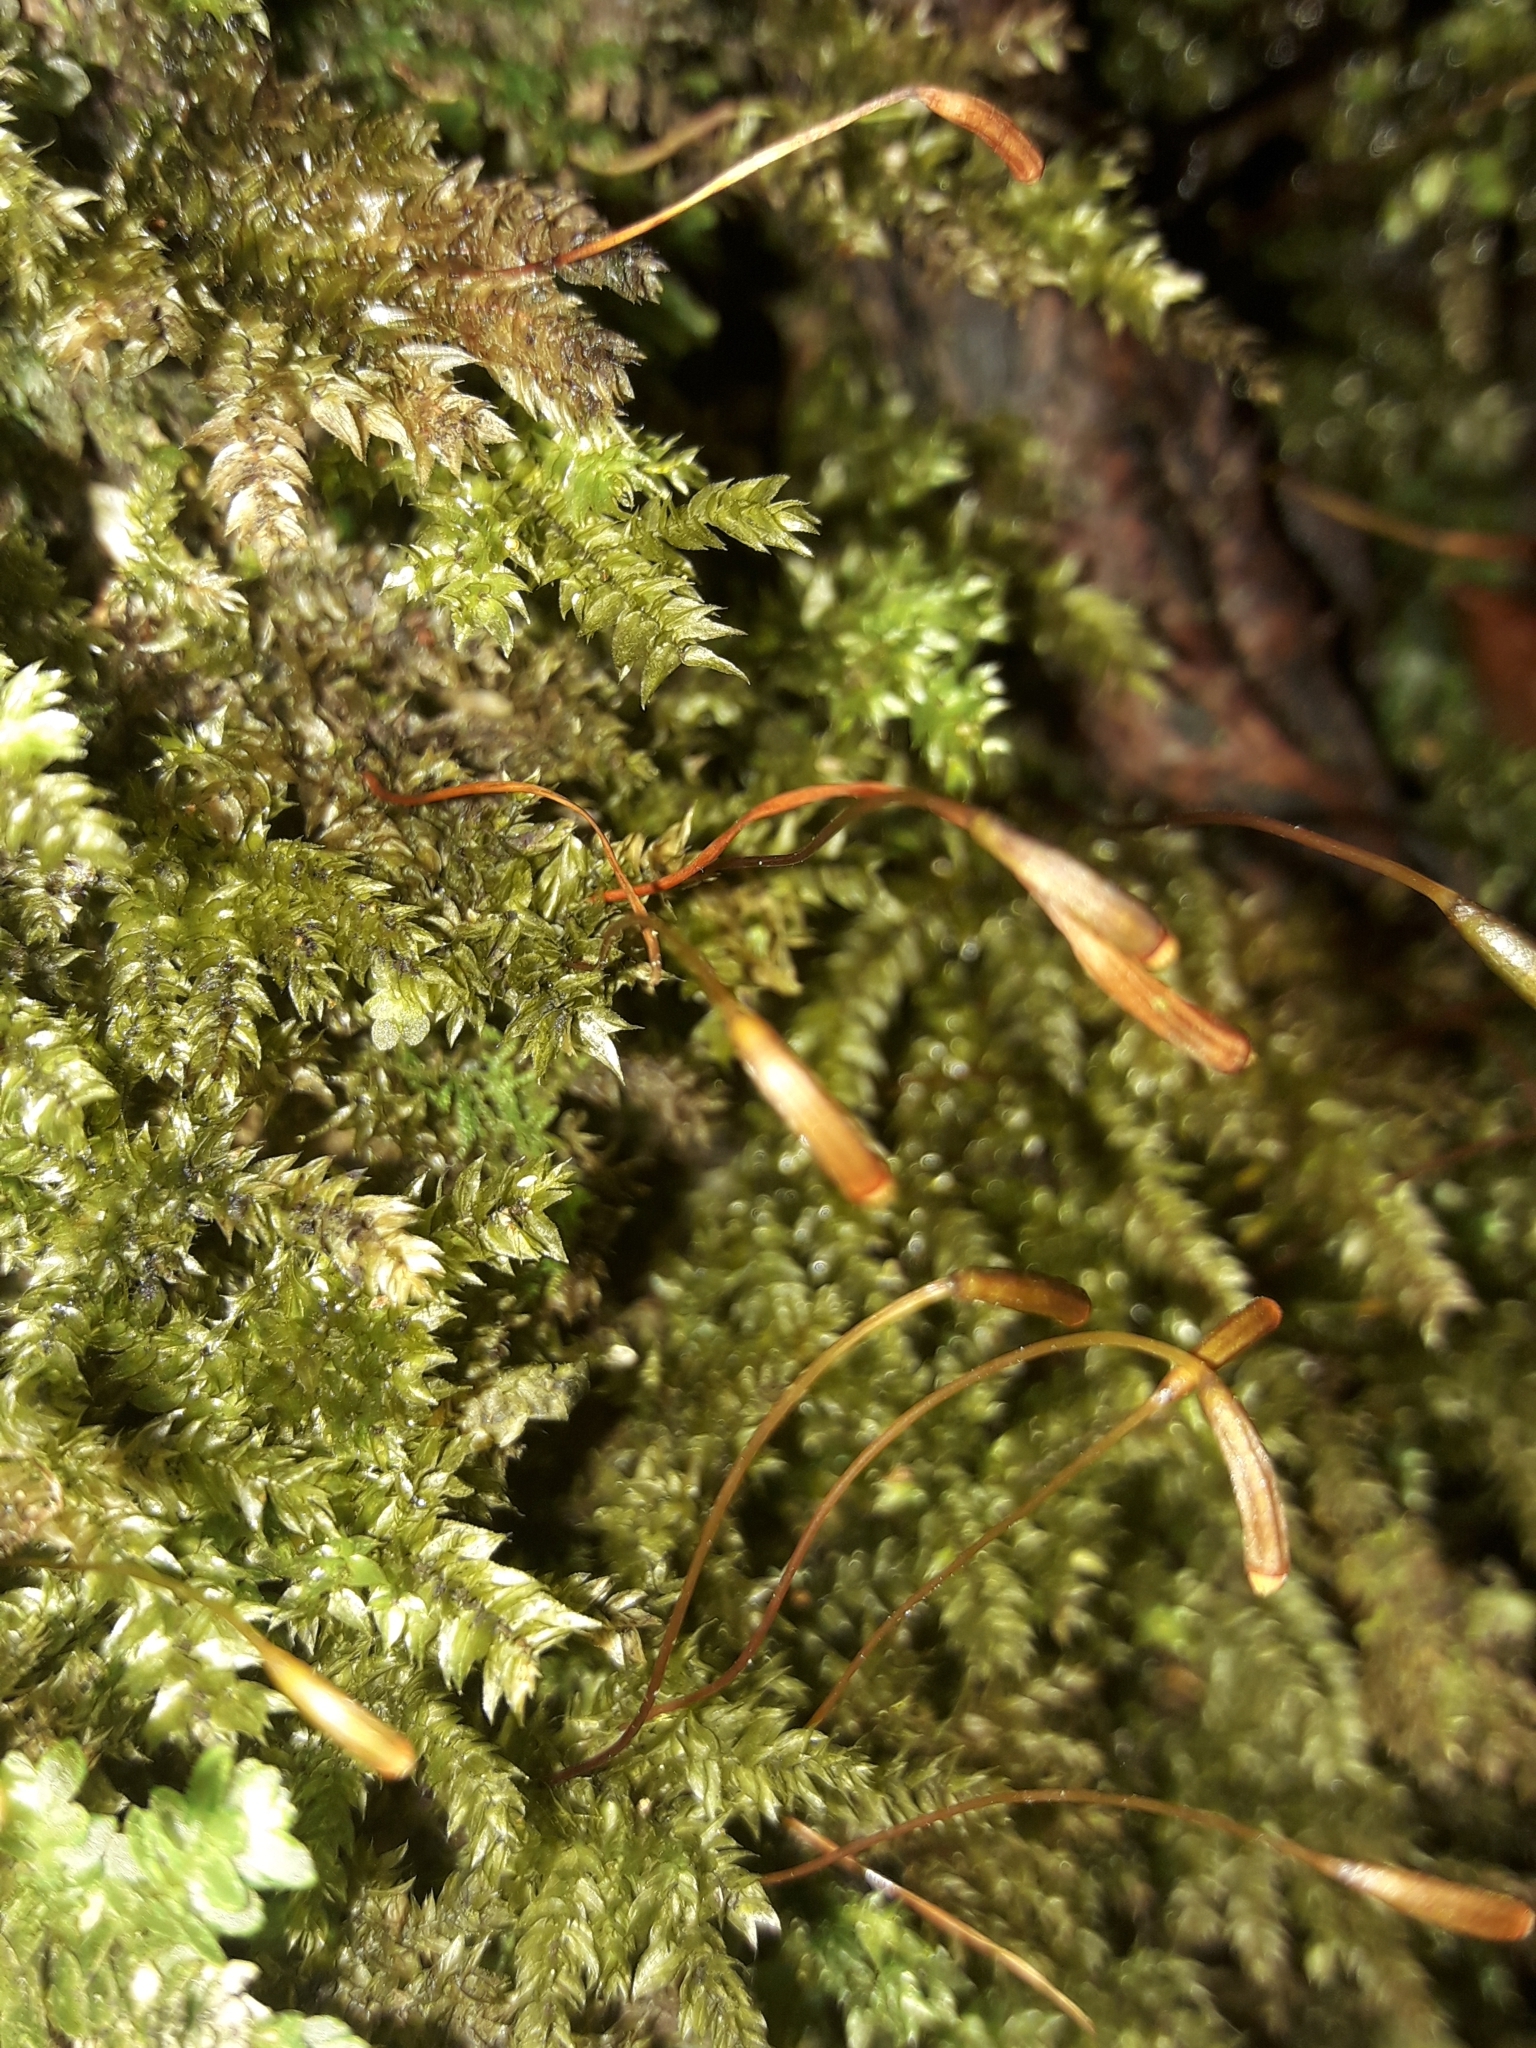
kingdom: Plantae
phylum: Bryophyta
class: Bryopsida
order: Hypnodendrales
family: Spiridentaceae
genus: Hypnodendron
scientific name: Hypnodendron arcuatum
